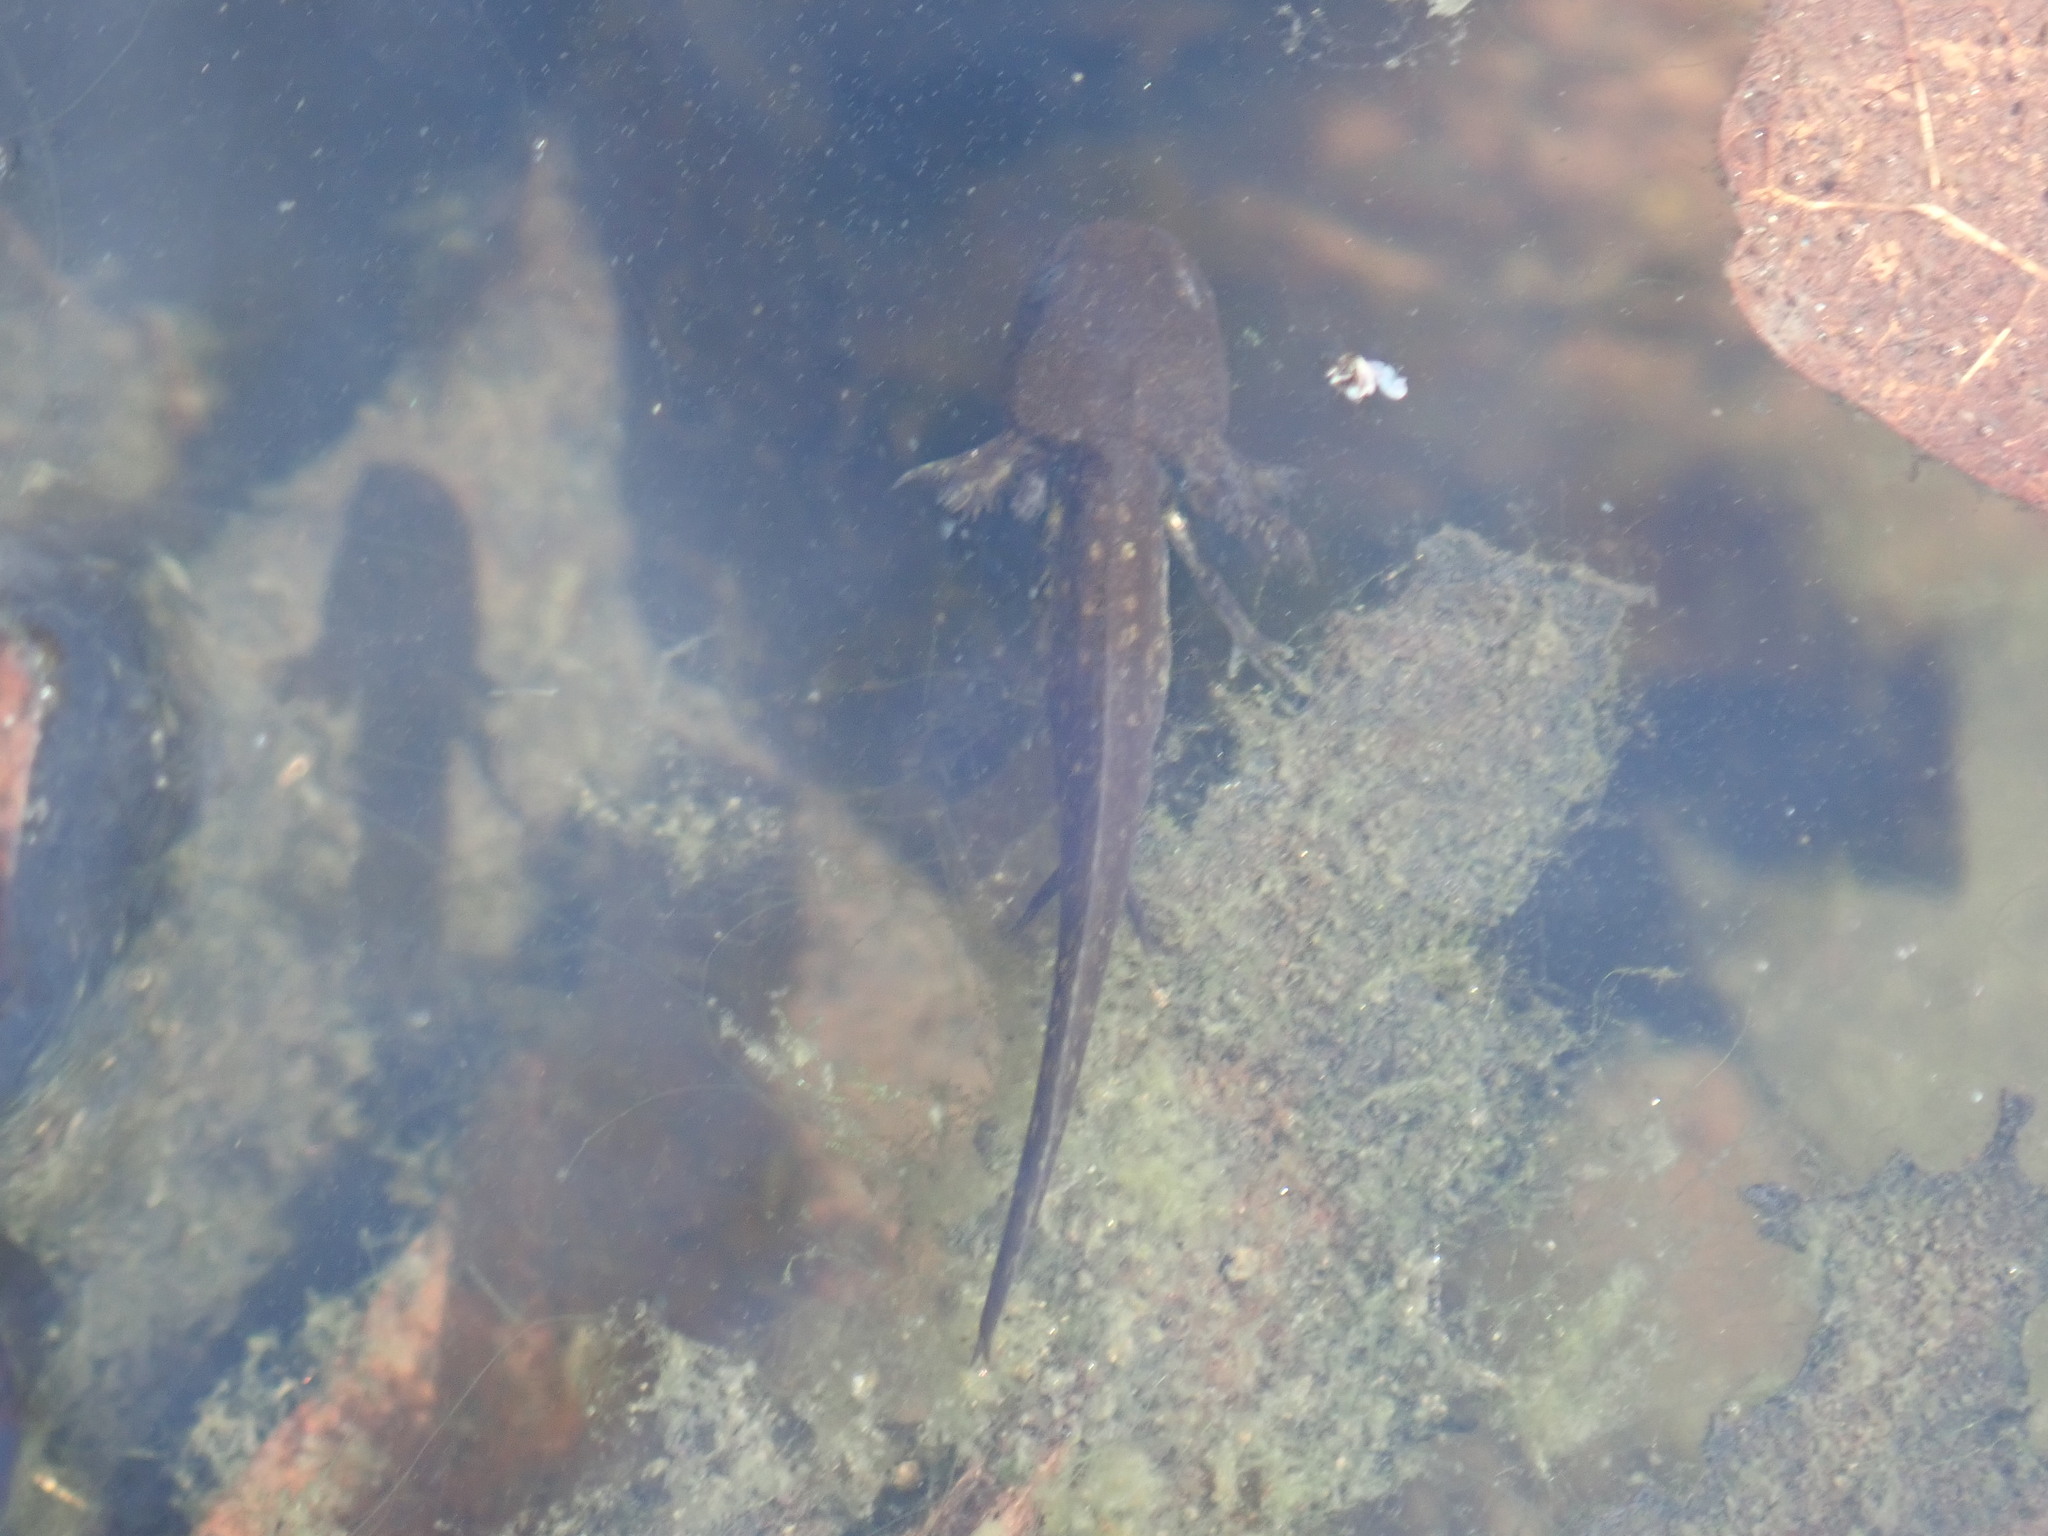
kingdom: Animalia
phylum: Chordata
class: Amphibia
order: Caudata
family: Ambystomatidae
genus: Ambystoma
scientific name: Ambystoma opacum
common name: Marbled salamander
